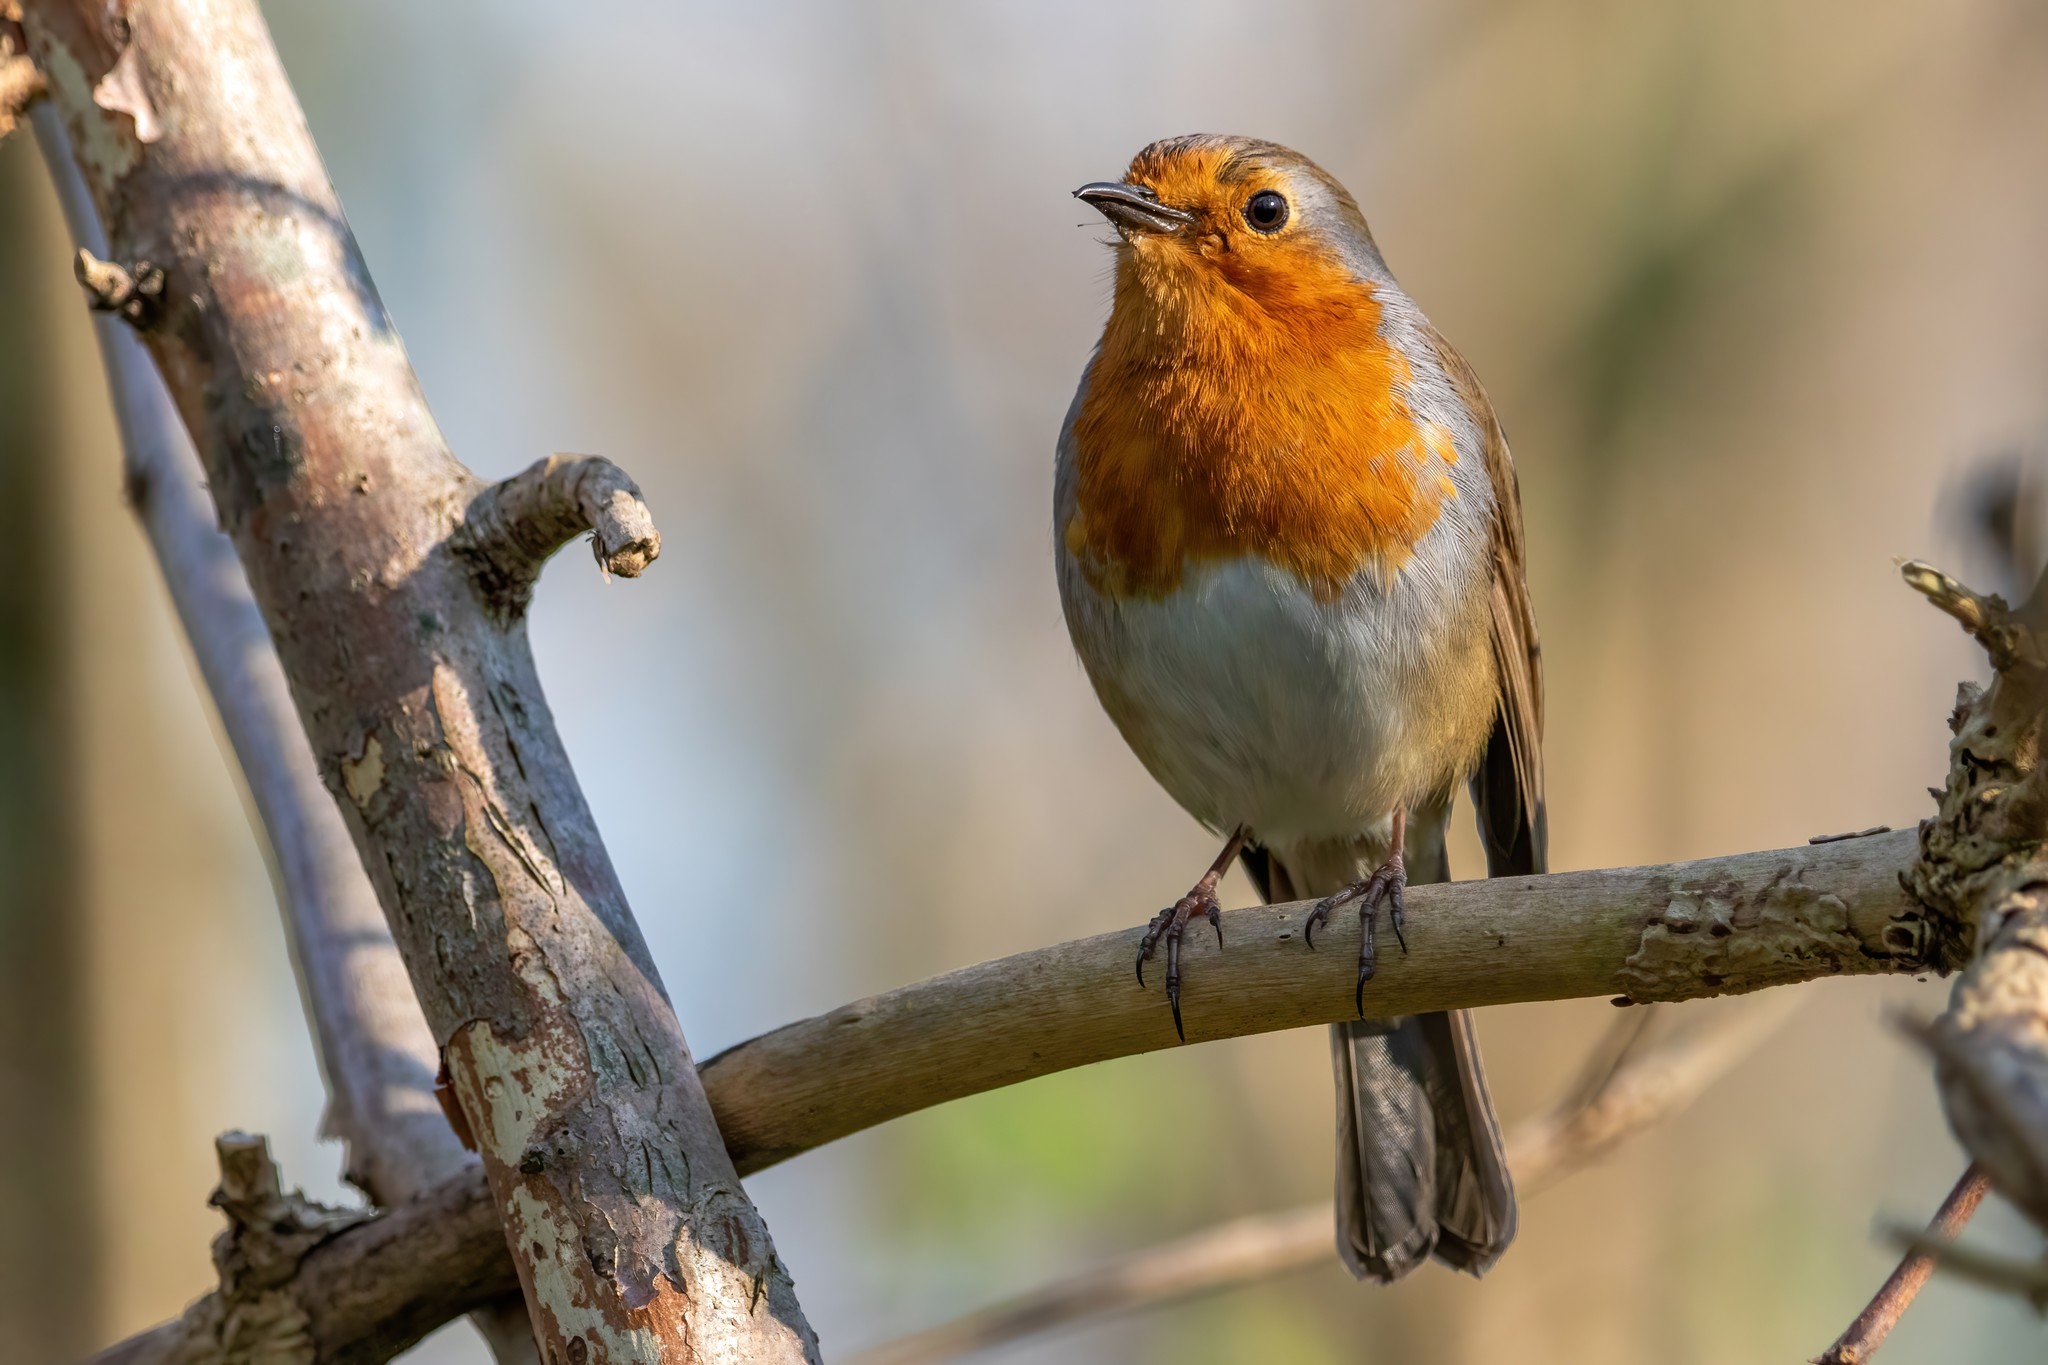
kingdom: Animalia
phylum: Chordata
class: Aves
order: Passeriformes
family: Muscicapidae
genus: Erithacus
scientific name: Erithacus rubecula
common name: European robin
